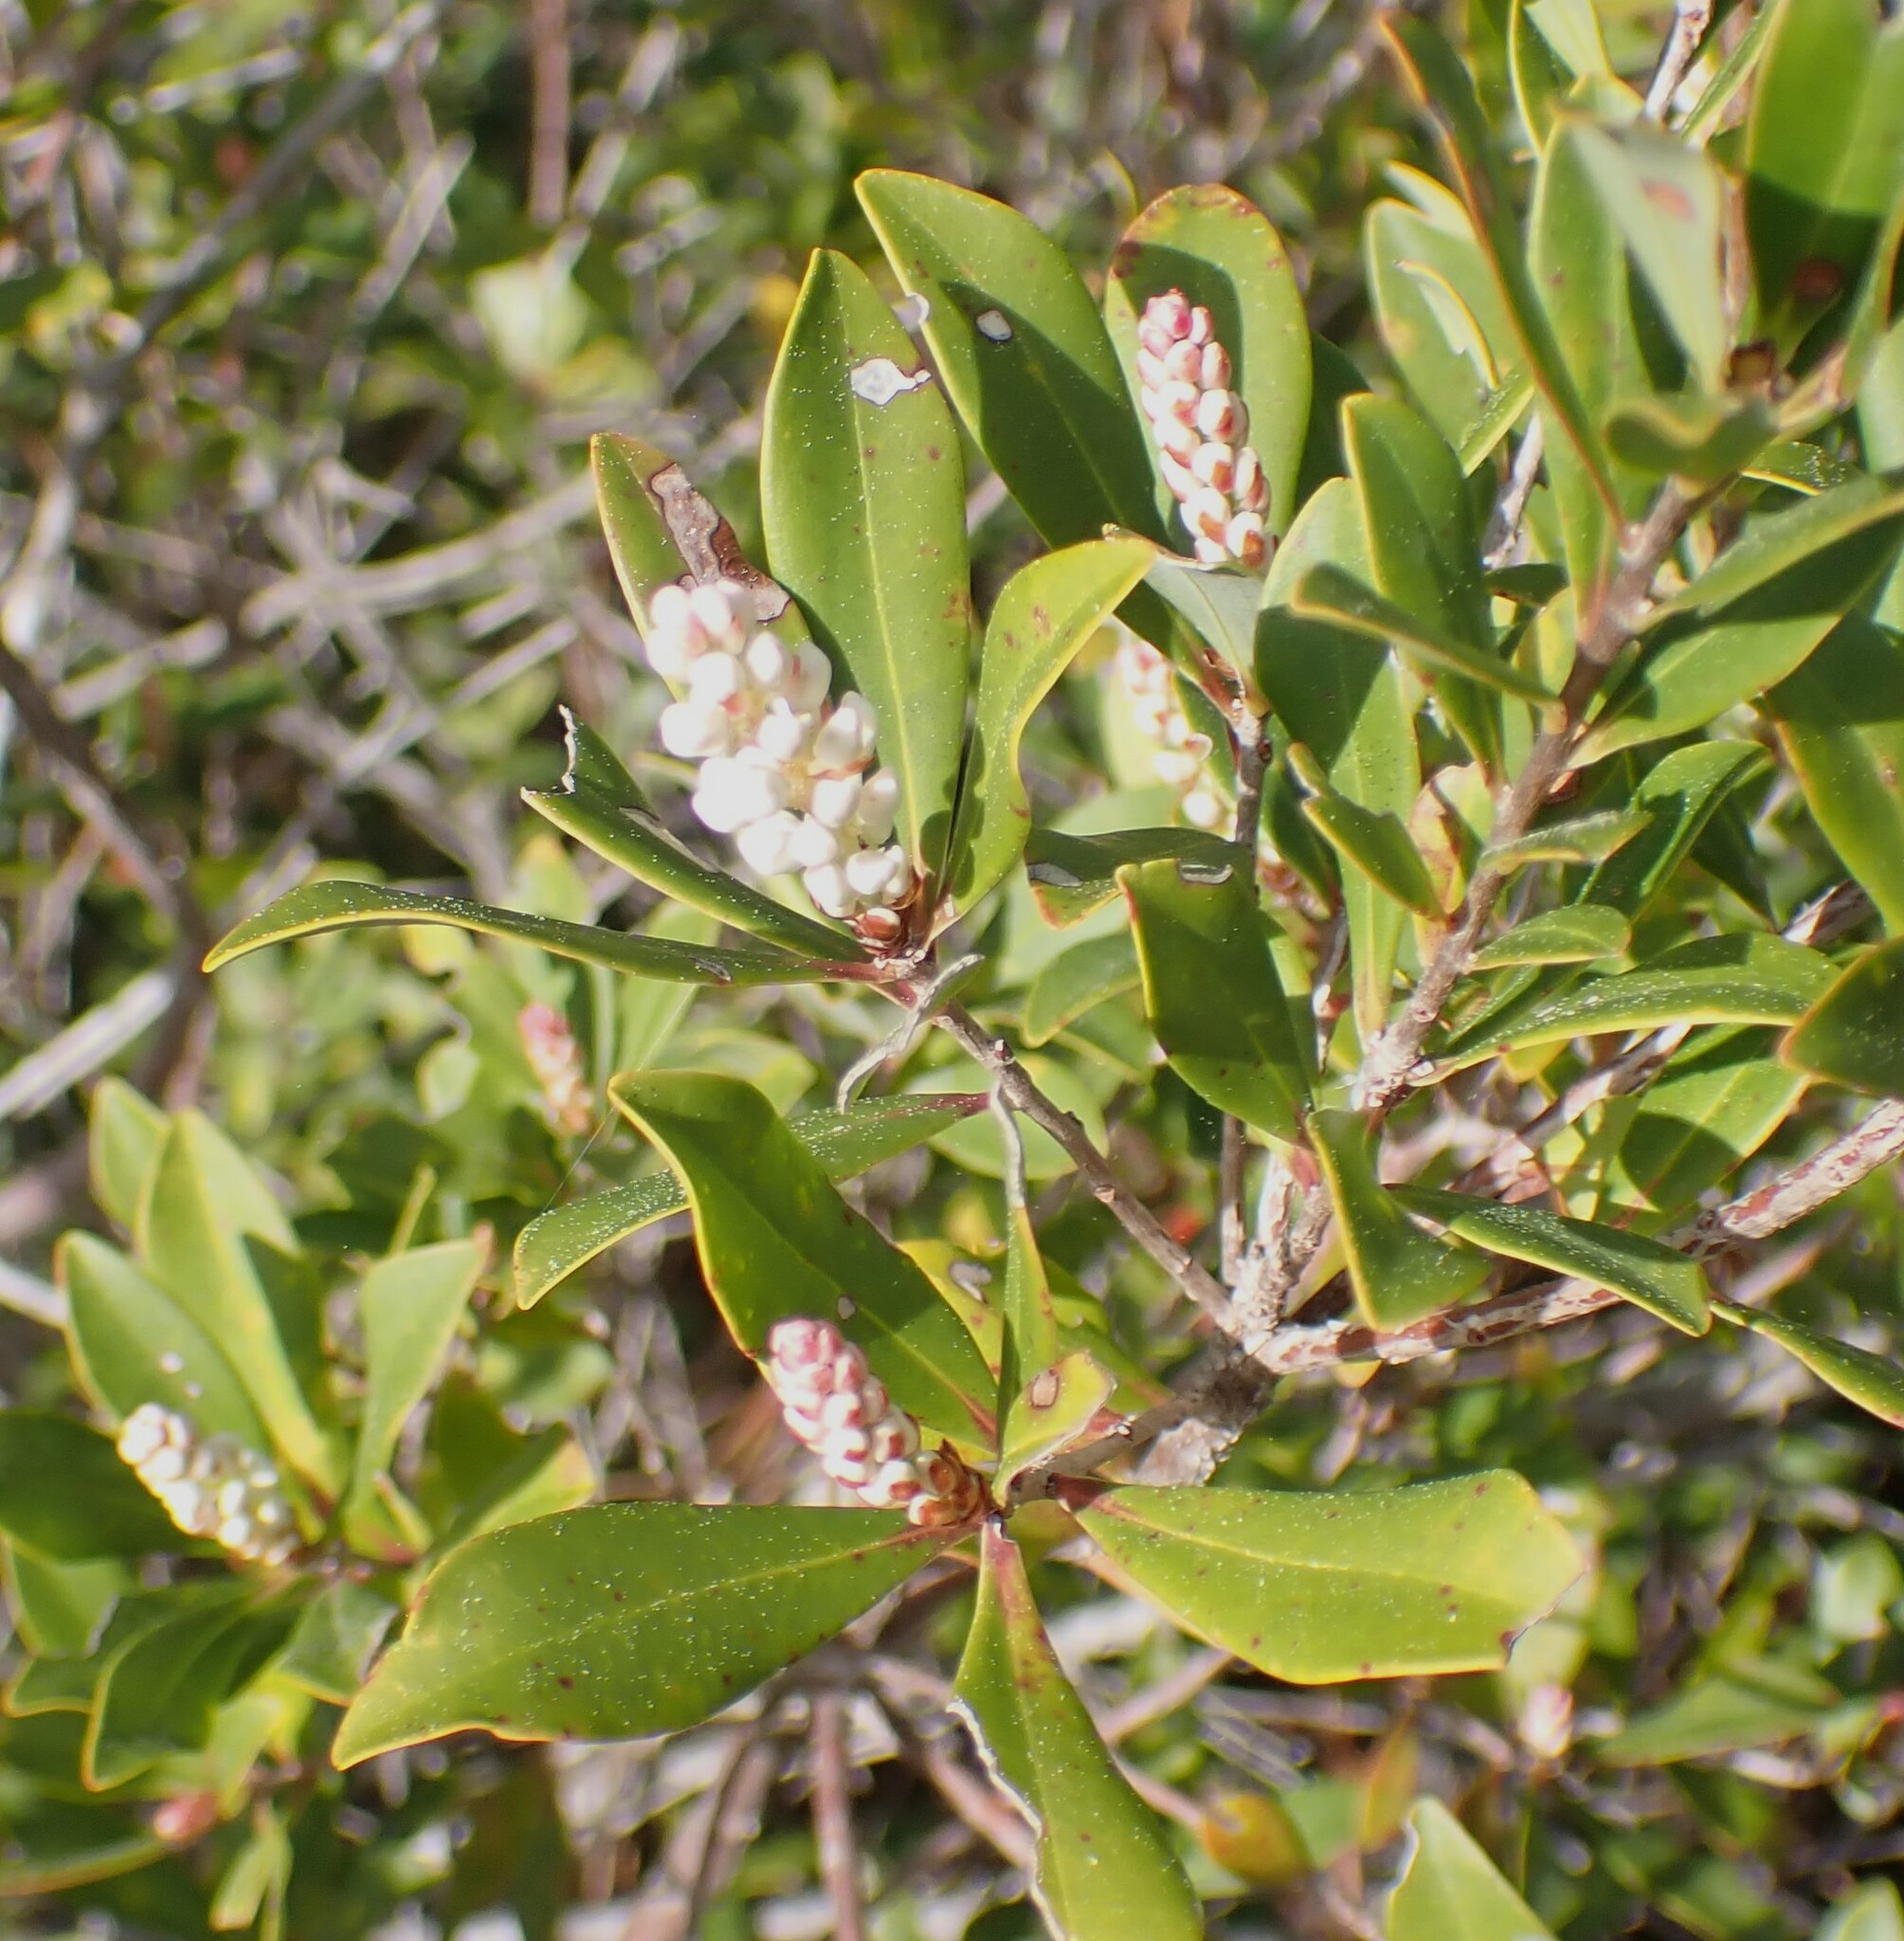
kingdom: Plantae
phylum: Tracheophyta
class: Magnoliopsida
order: Ericales
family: Cyrillaceae
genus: Cliftonia
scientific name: Cliftonia monophylla
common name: Titi
